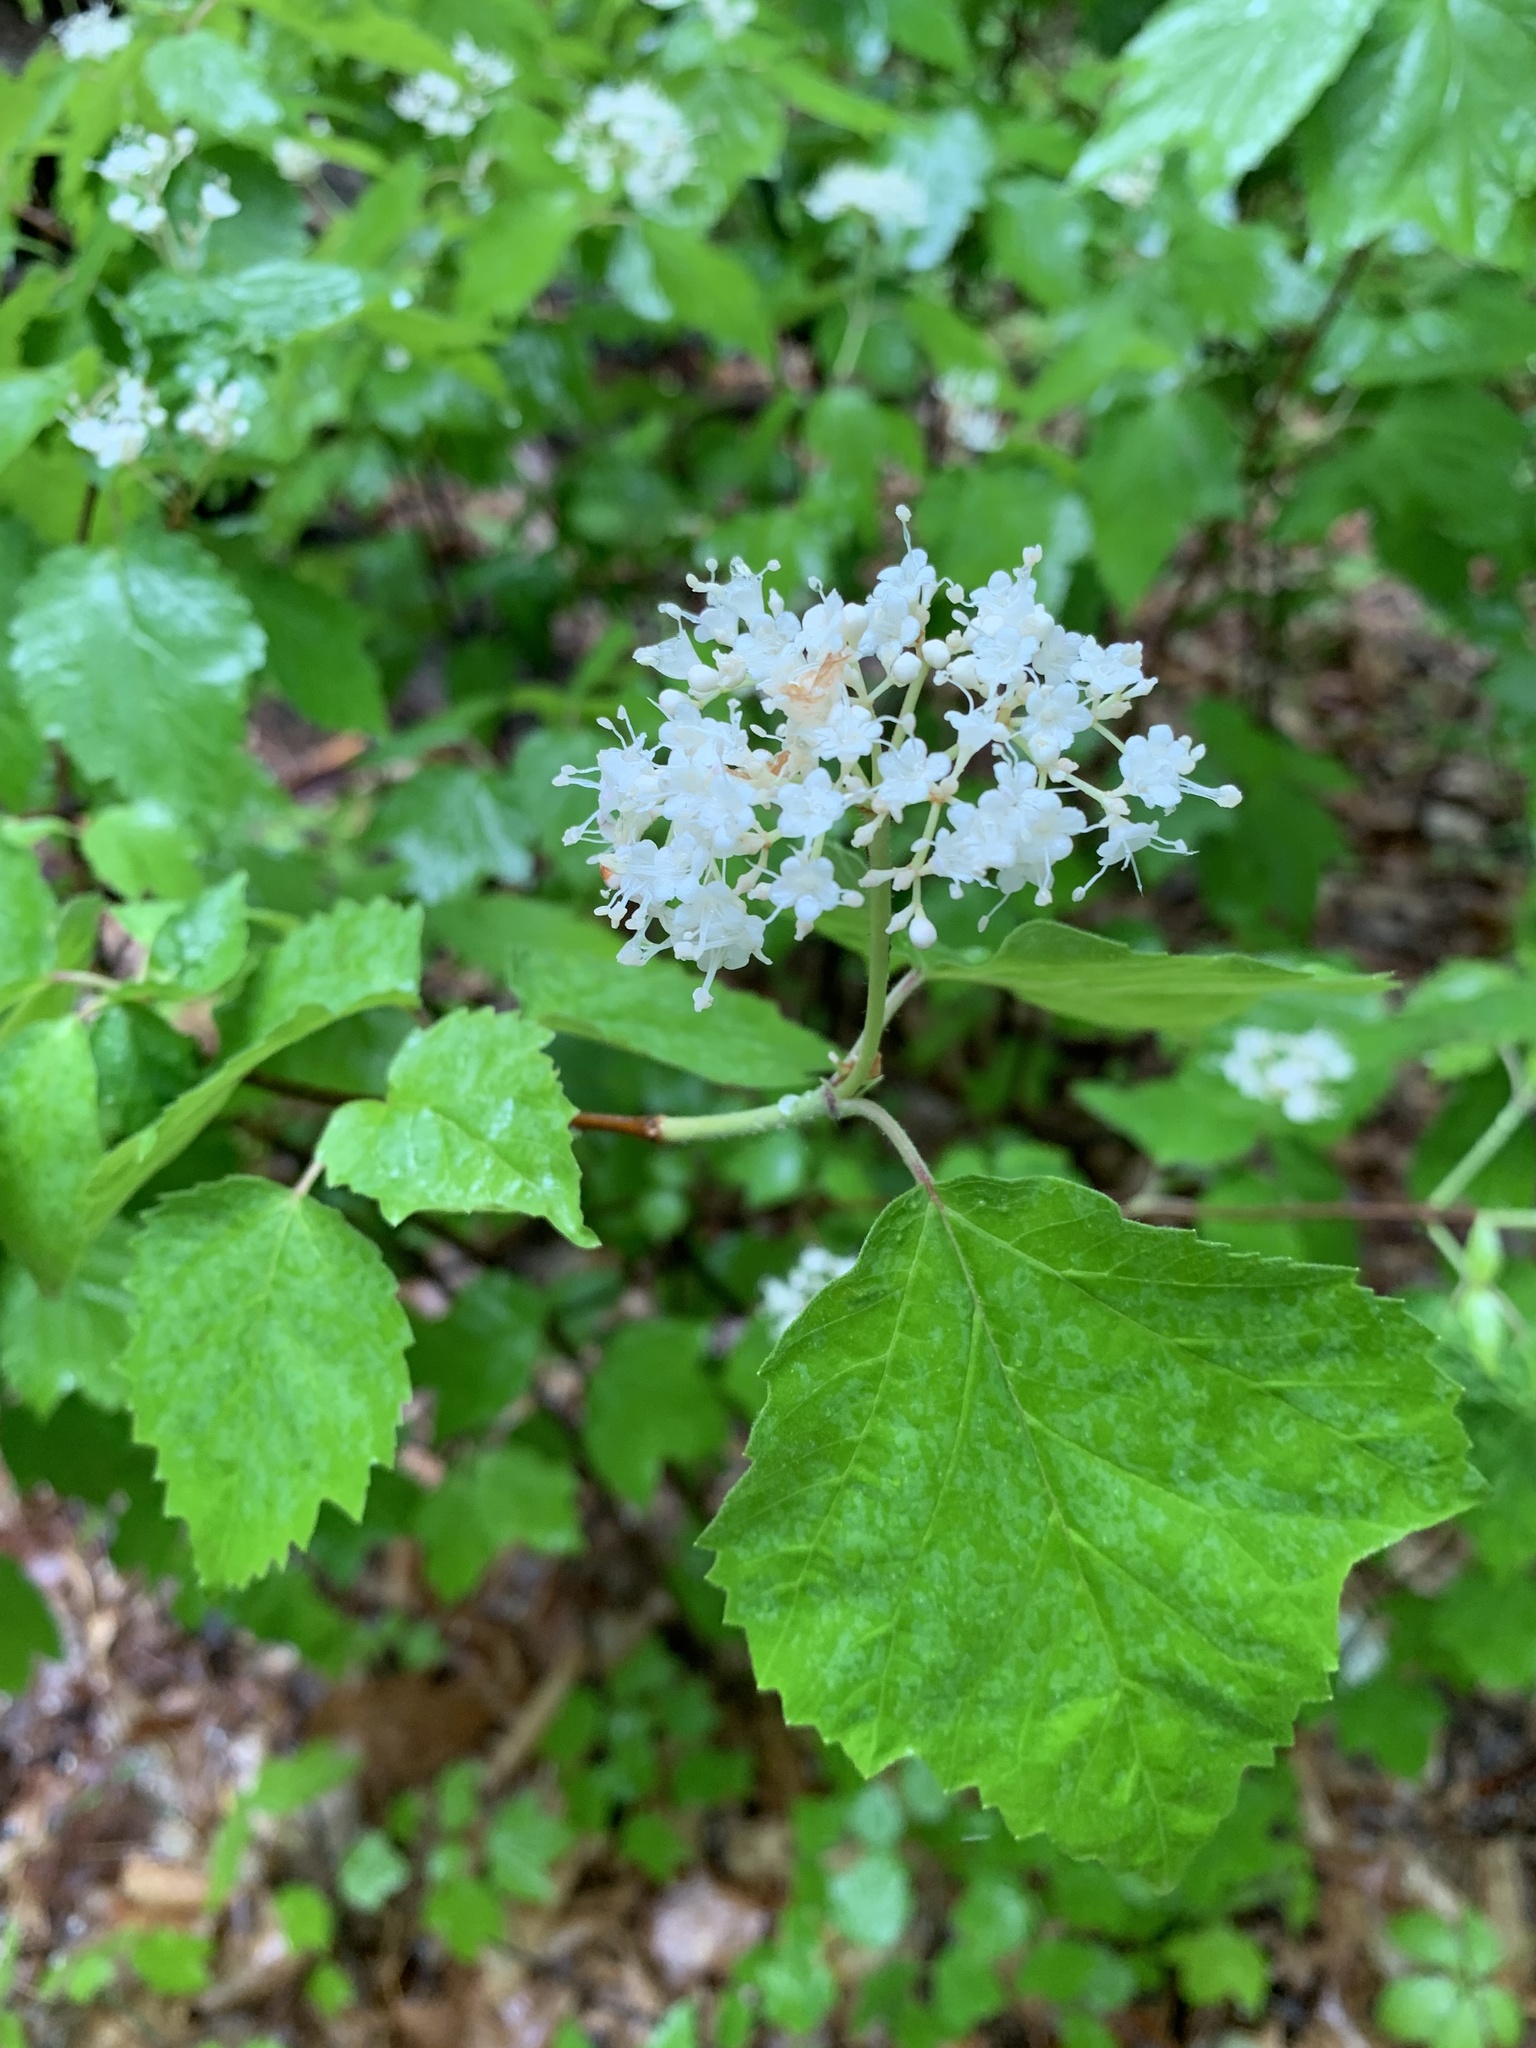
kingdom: Plantae
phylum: Tracheophyta
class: Magnoliopsida
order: Dipsacales
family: Viburnaceae
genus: Viburnum
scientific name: Viburnum acerifolium
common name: Dockmackie
